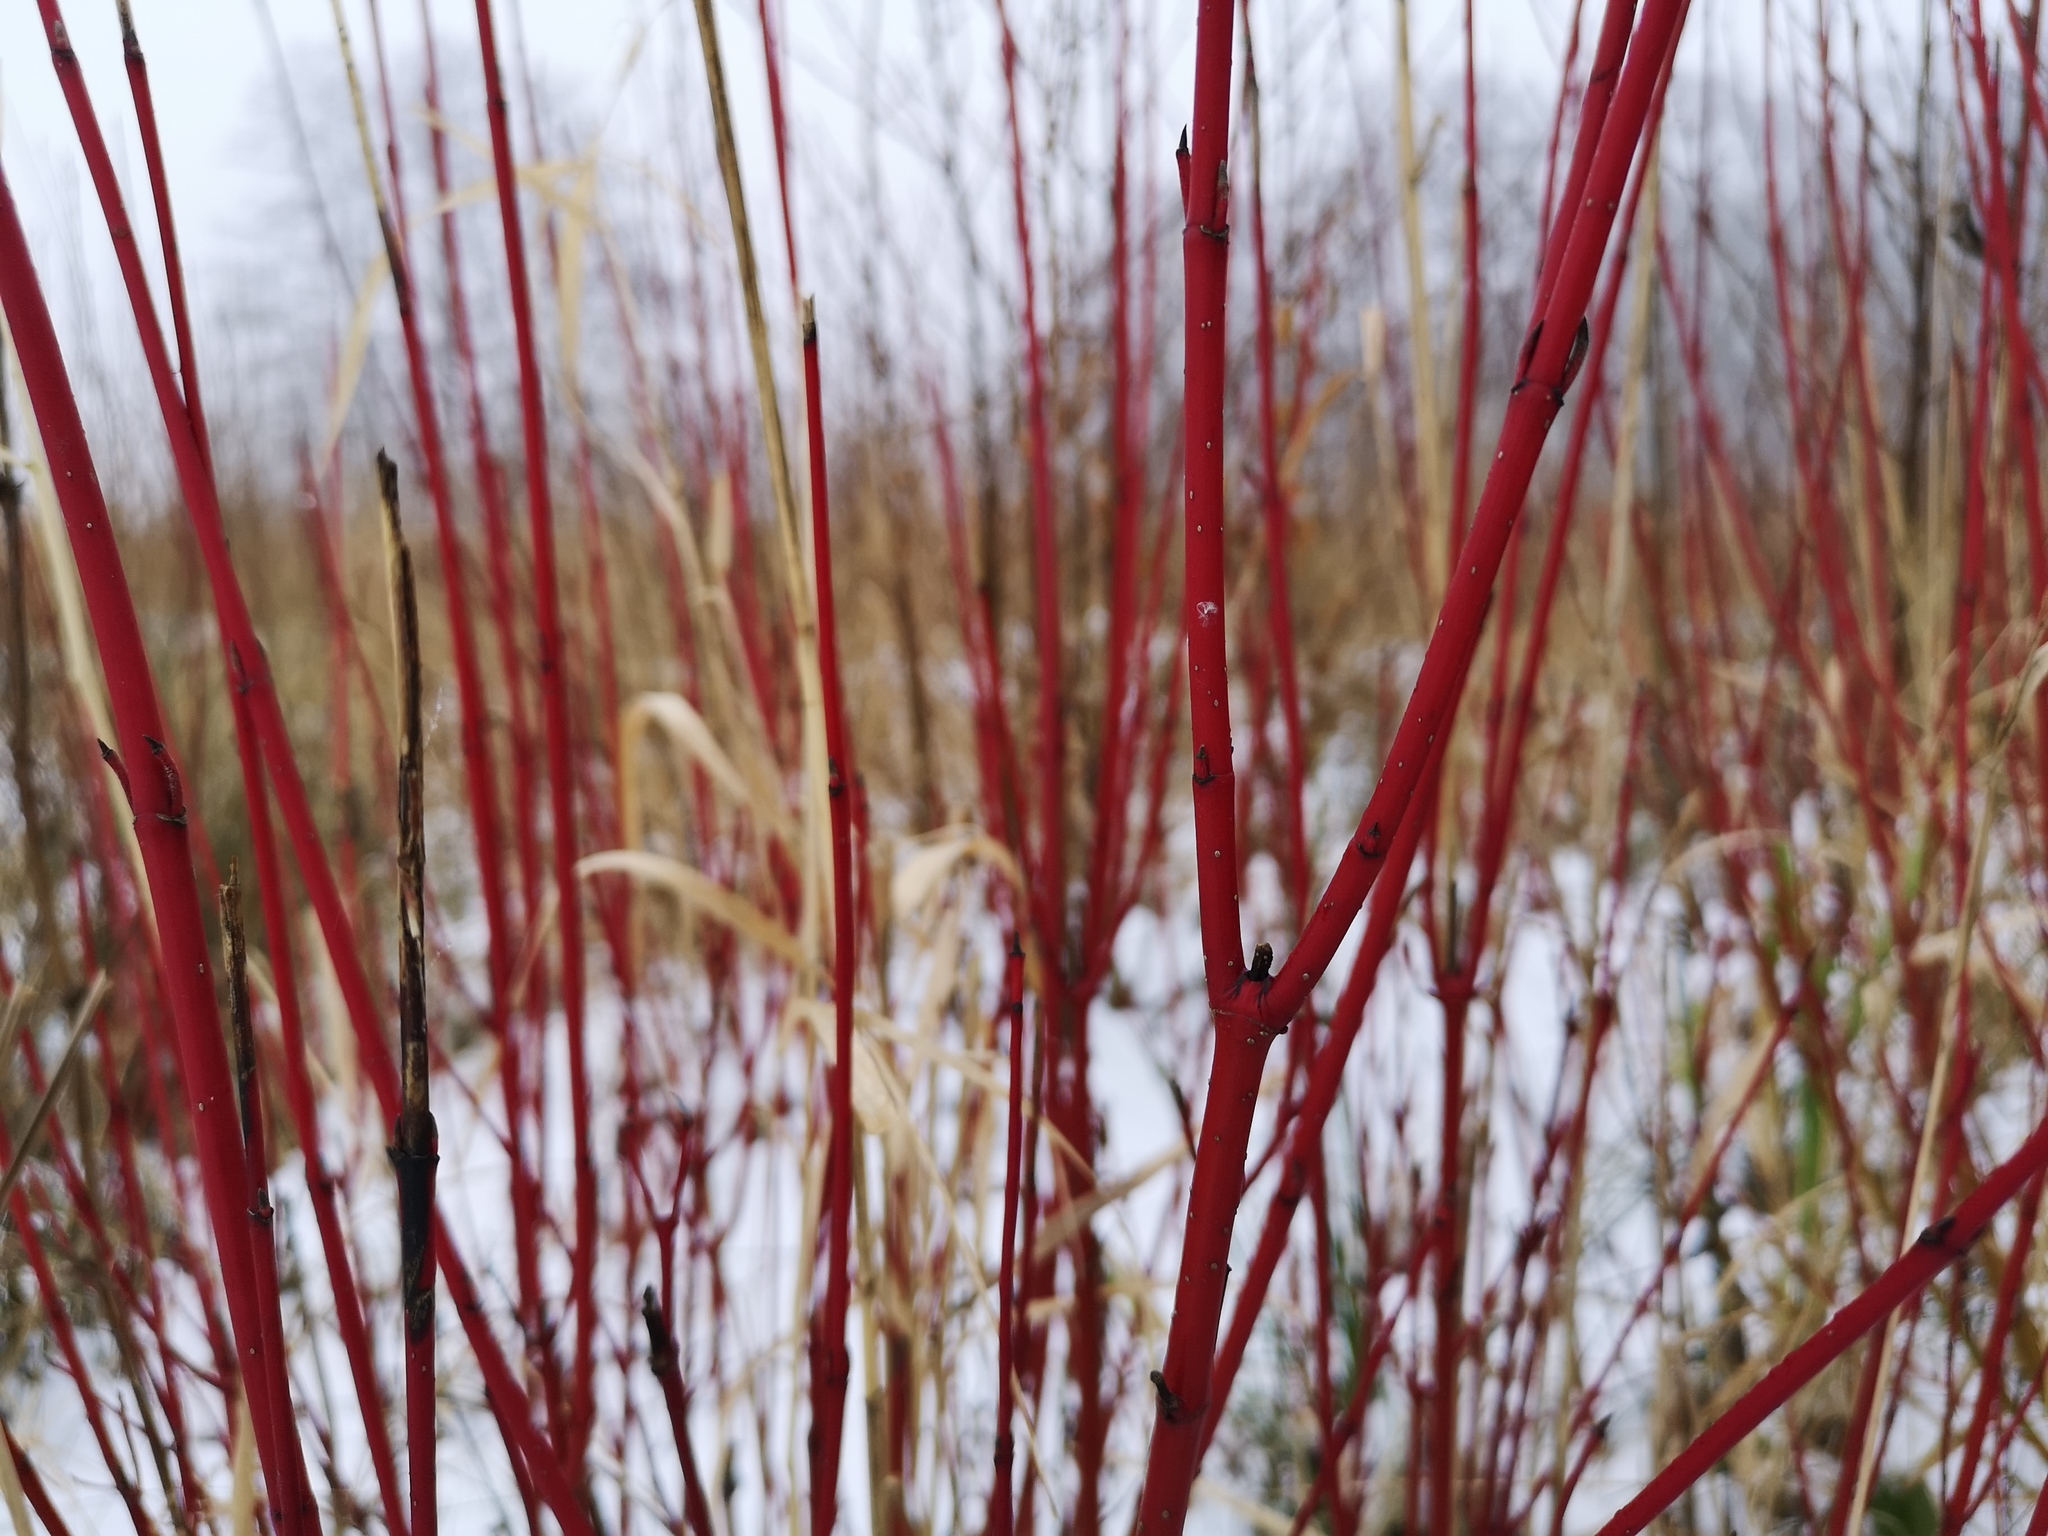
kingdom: Plantae
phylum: Tracheophyta
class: Magnoliopsida
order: Cornales
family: Cornaceae
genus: Cornus
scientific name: Cornus sericea
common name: Red-osier dogwood
